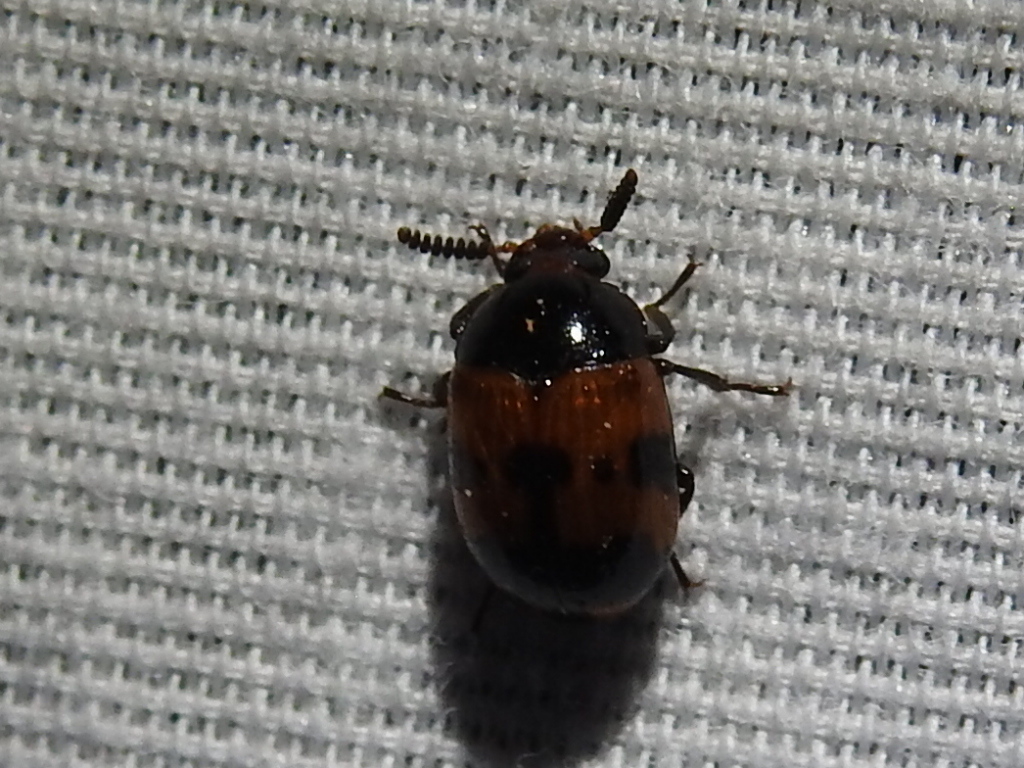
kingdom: Animalia
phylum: Arthropoda
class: Insecta
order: Coleoptera
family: Tenebrionidae
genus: Diaperis
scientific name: Diaperis nigronotata
